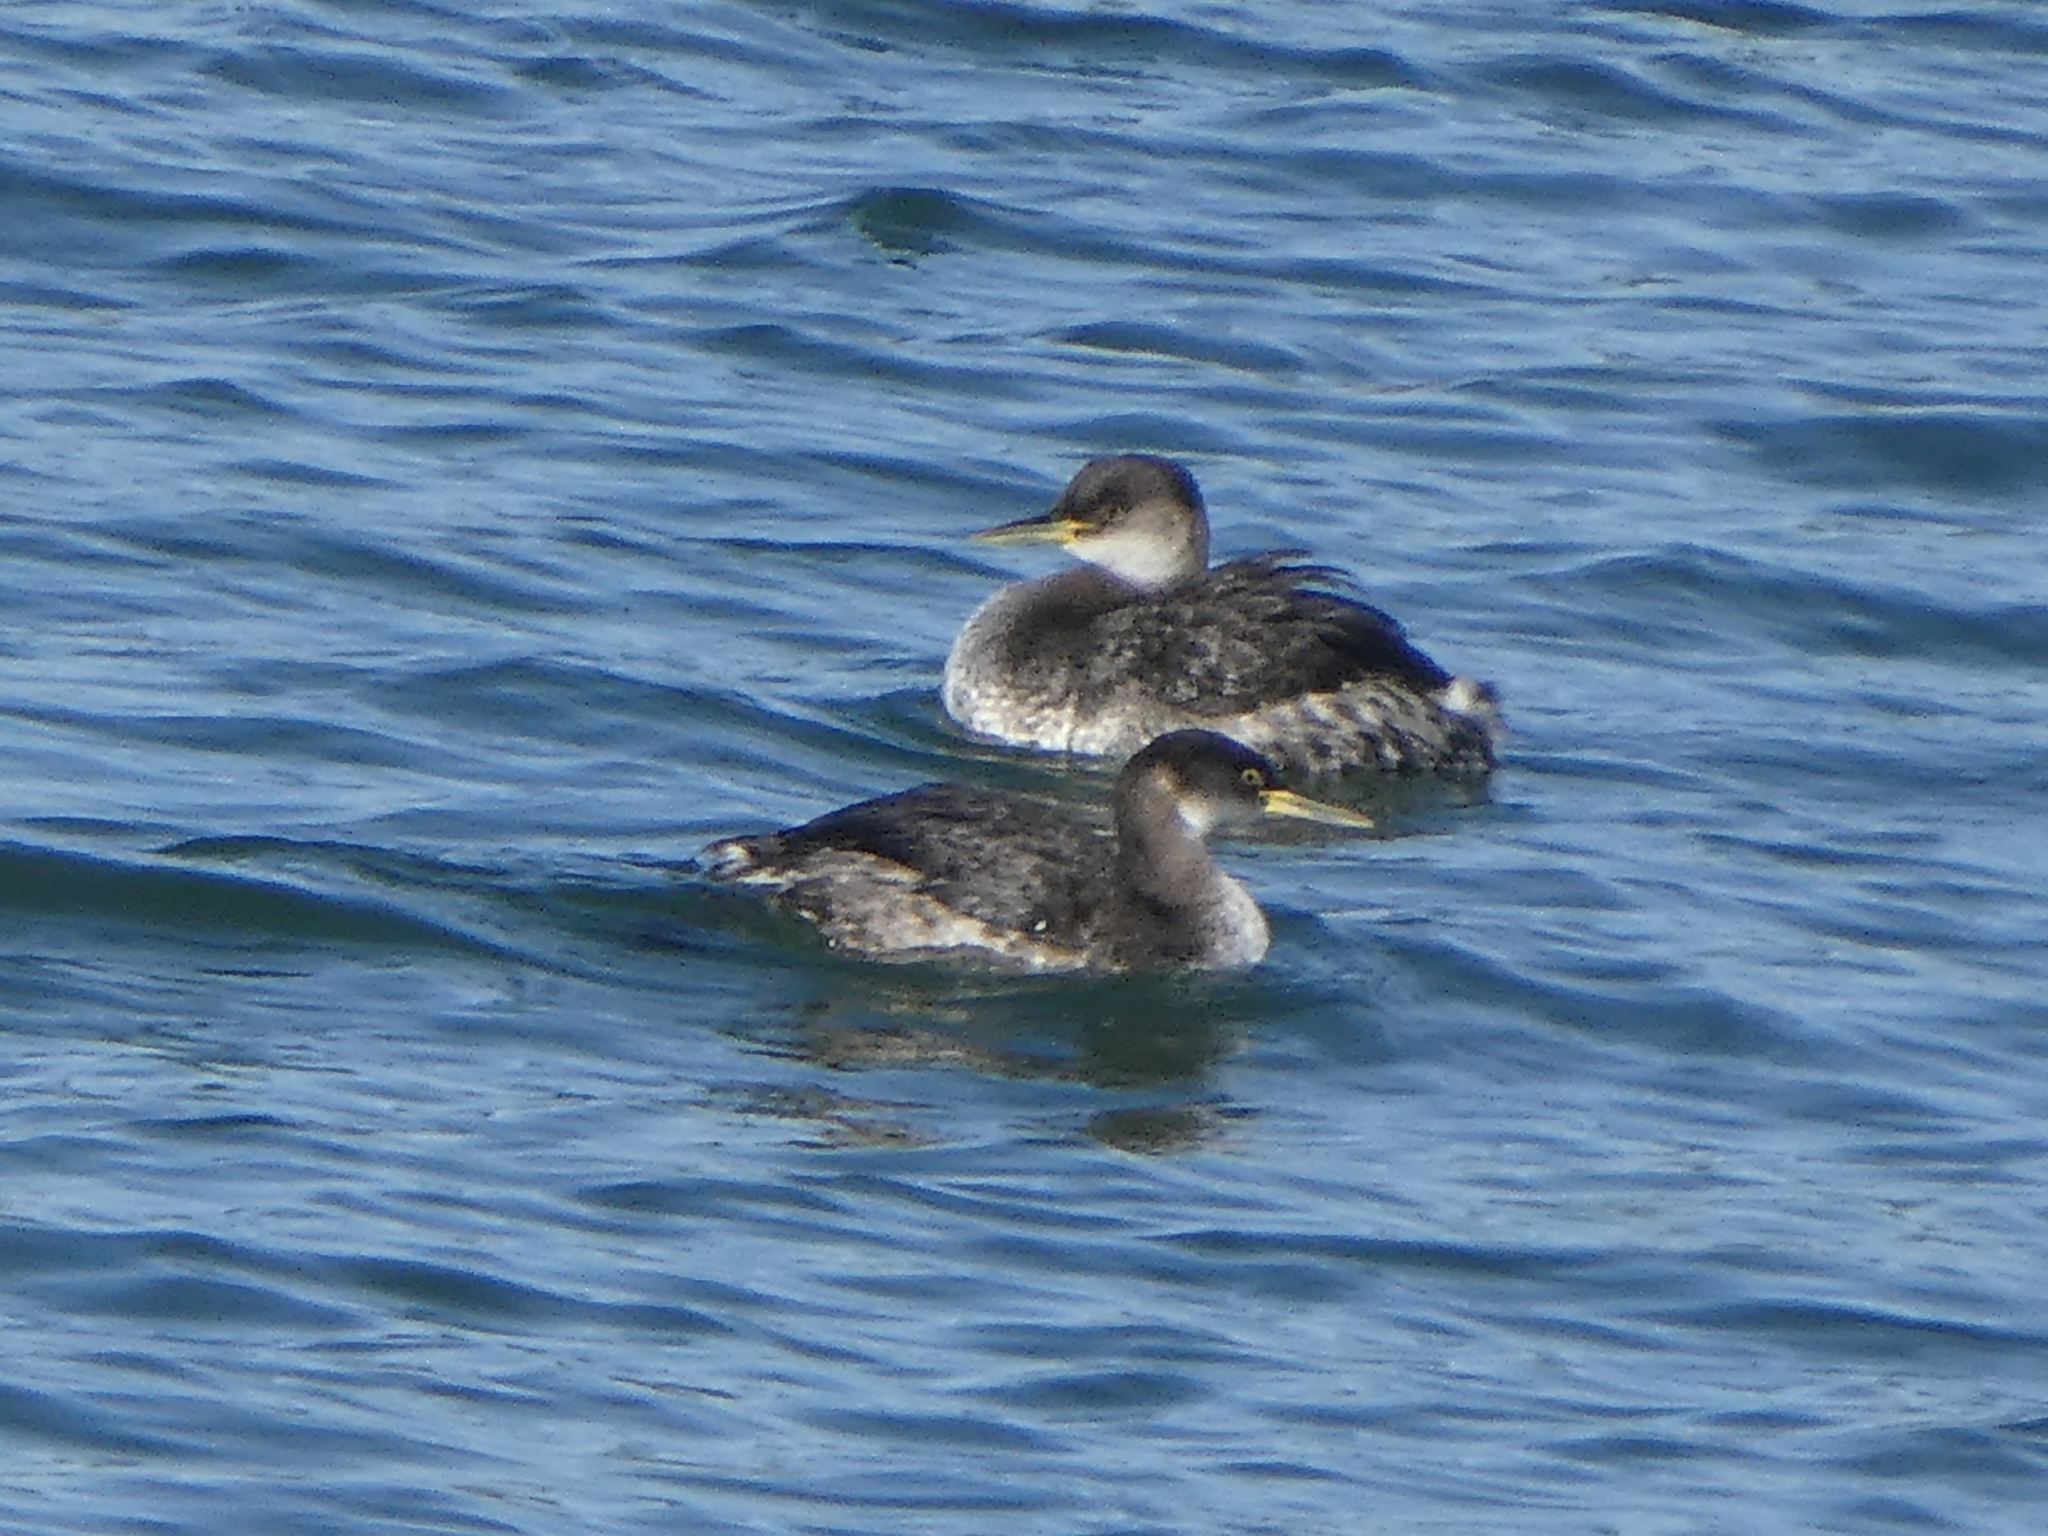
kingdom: Animalia
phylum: Chordata
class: Aves
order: Podicipediformes
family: Podicipedidae
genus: Podiceps
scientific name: Podiceps grisegena
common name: Red-necked grebe
